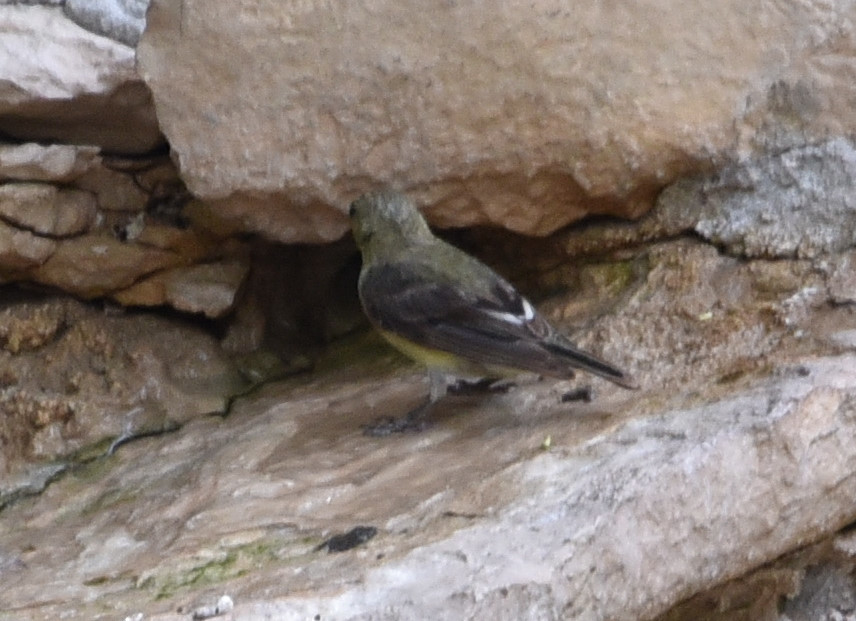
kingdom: Animalia
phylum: Chordata
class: Aves
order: Passeriformes
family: Fringillidae
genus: Spinus
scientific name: Spinus psaltria
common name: Lesser goldfinch
